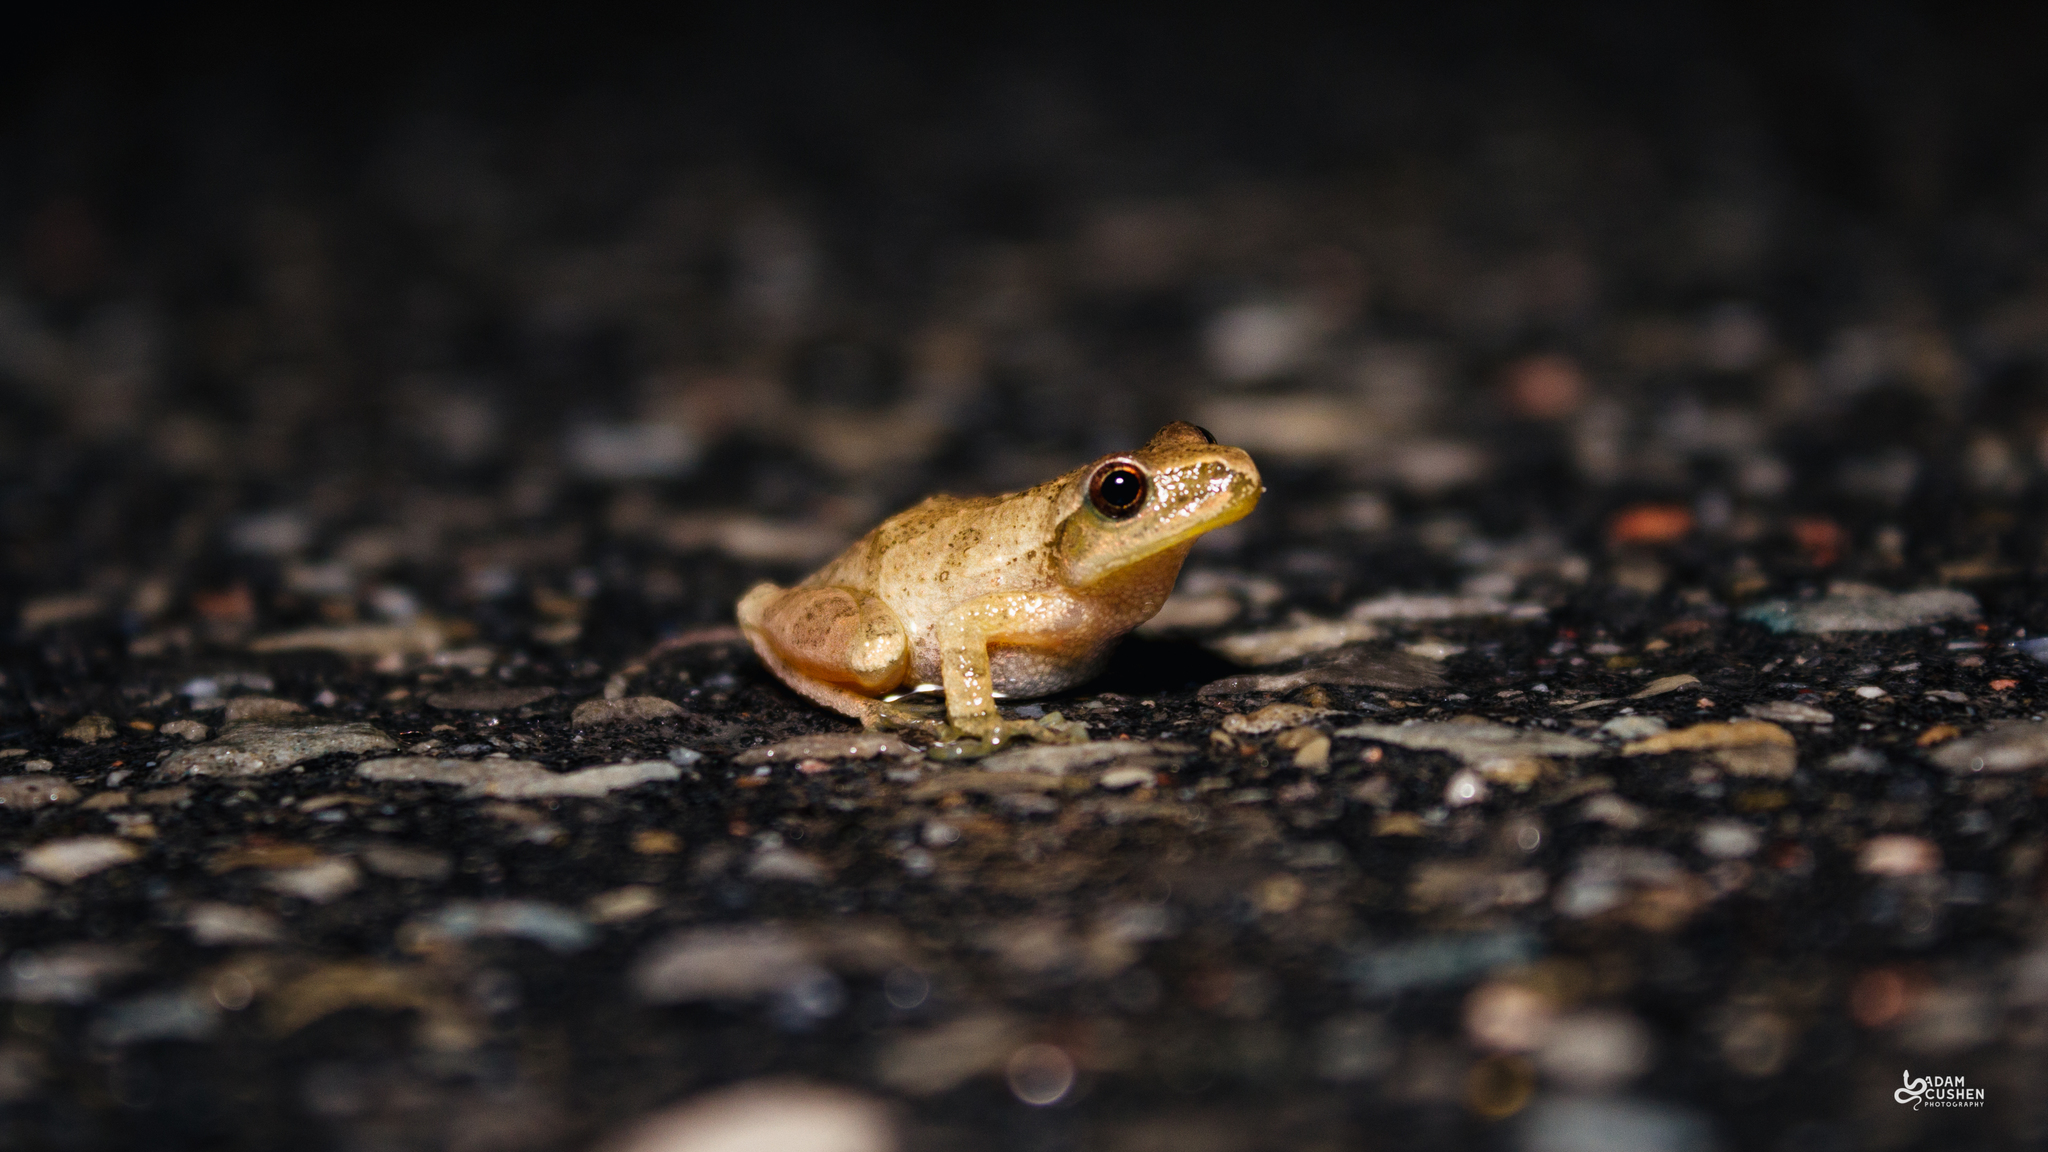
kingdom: Animalia
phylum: Chordata
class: Amphibia
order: Anura
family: Hylidae
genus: Pseudacris
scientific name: Pseudacris crucifer
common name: Spring peeper
